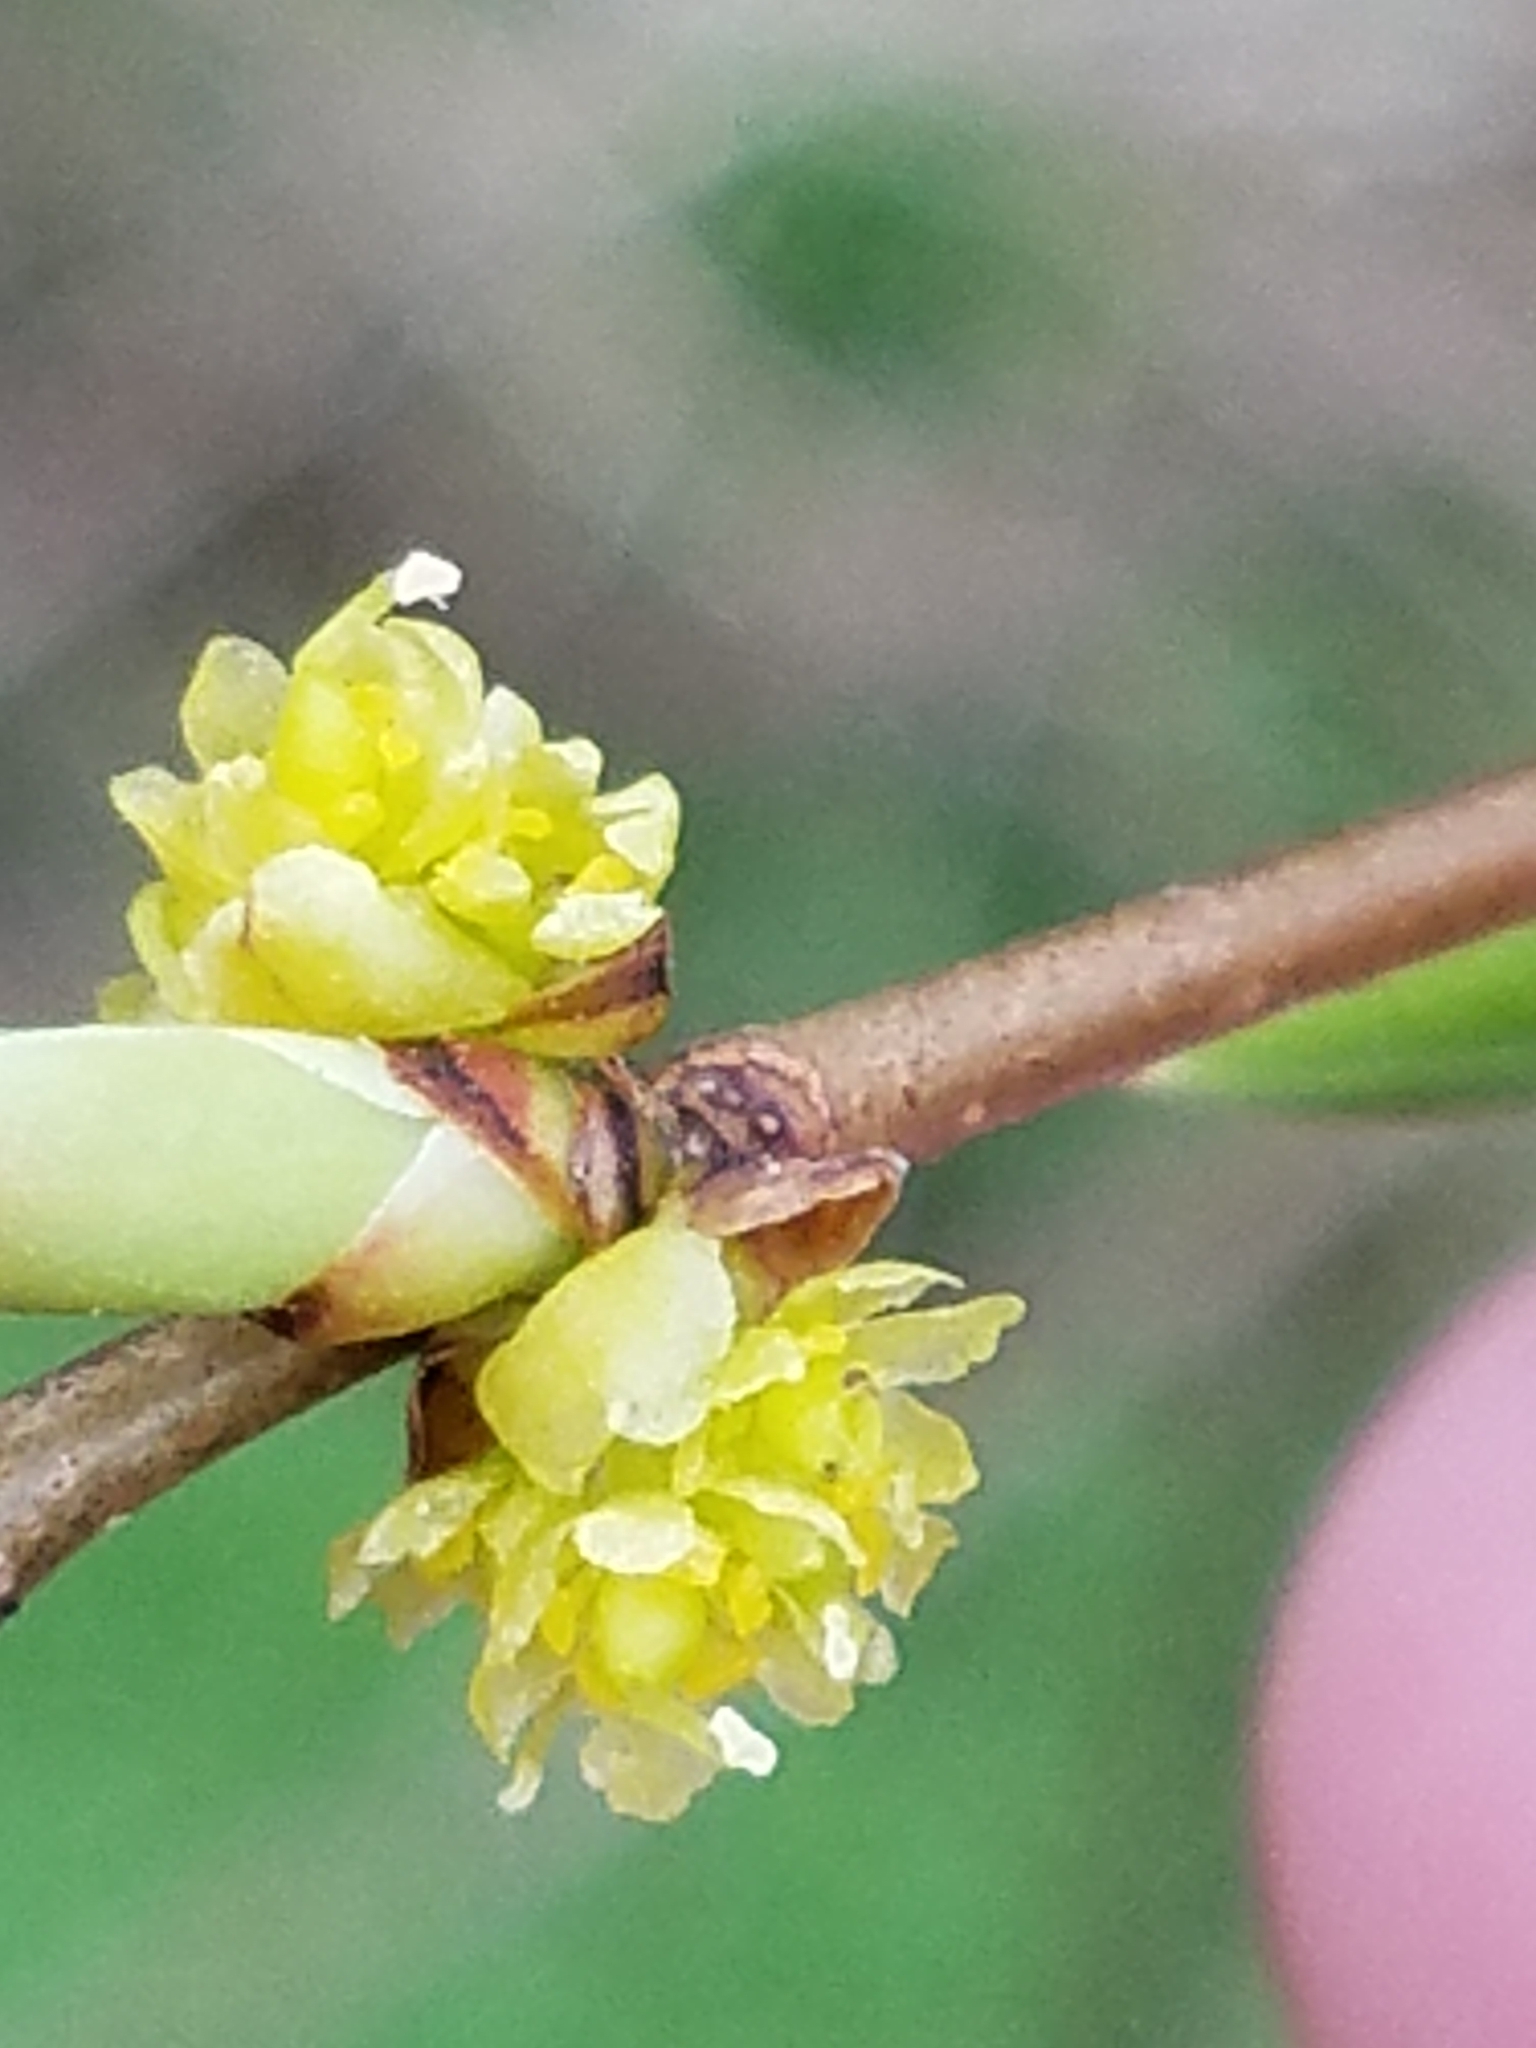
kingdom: Plantae
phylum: Tracheophyta
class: Magnoliopsida
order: Laurales
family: Lauraceae
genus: Lindera
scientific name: Lindera benzoin
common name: Spicebush
